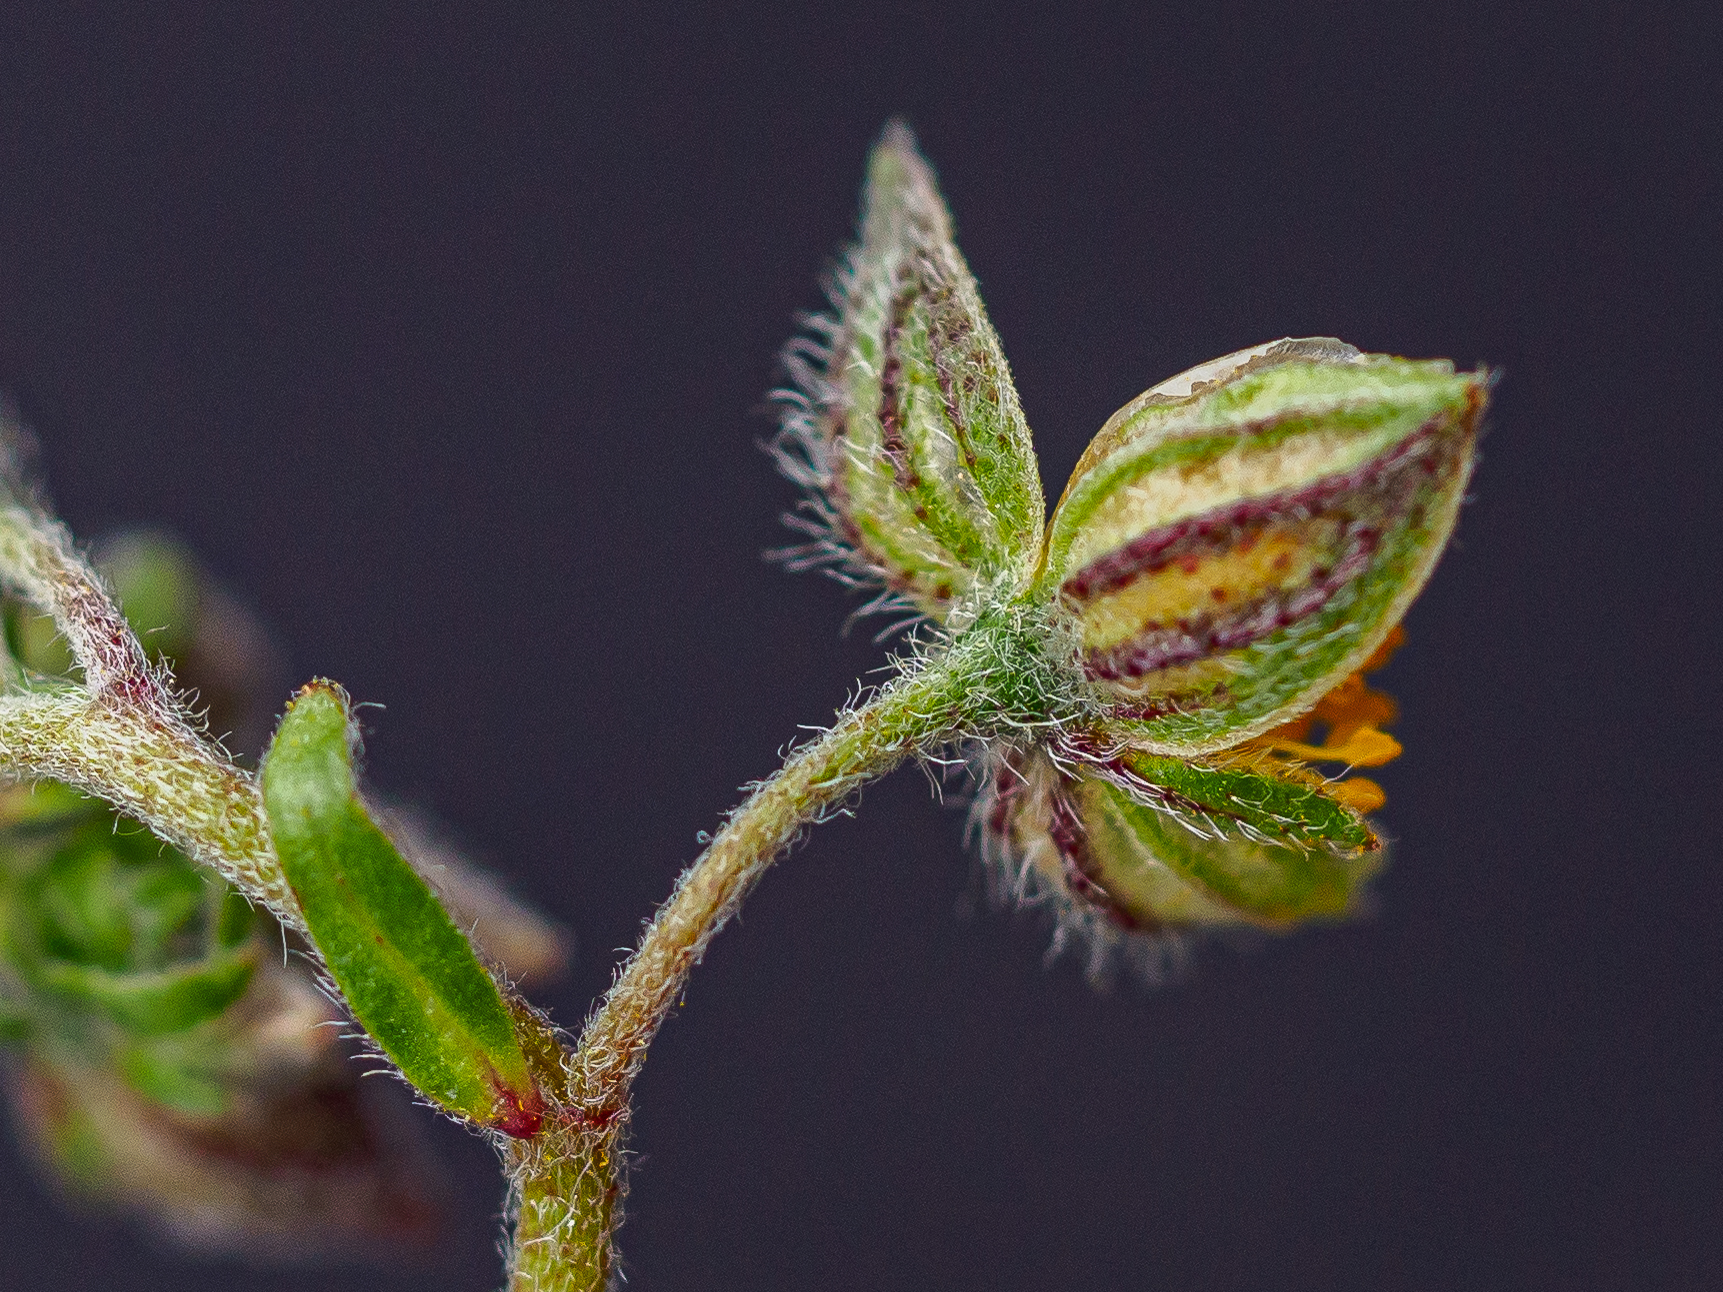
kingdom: Plantae
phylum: Tracheophyta
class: Magnoliopsida
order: Malvales
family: Cistaceae
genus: Helianthemum
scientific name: Helianthemum nummularium
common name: Common rock-rose
